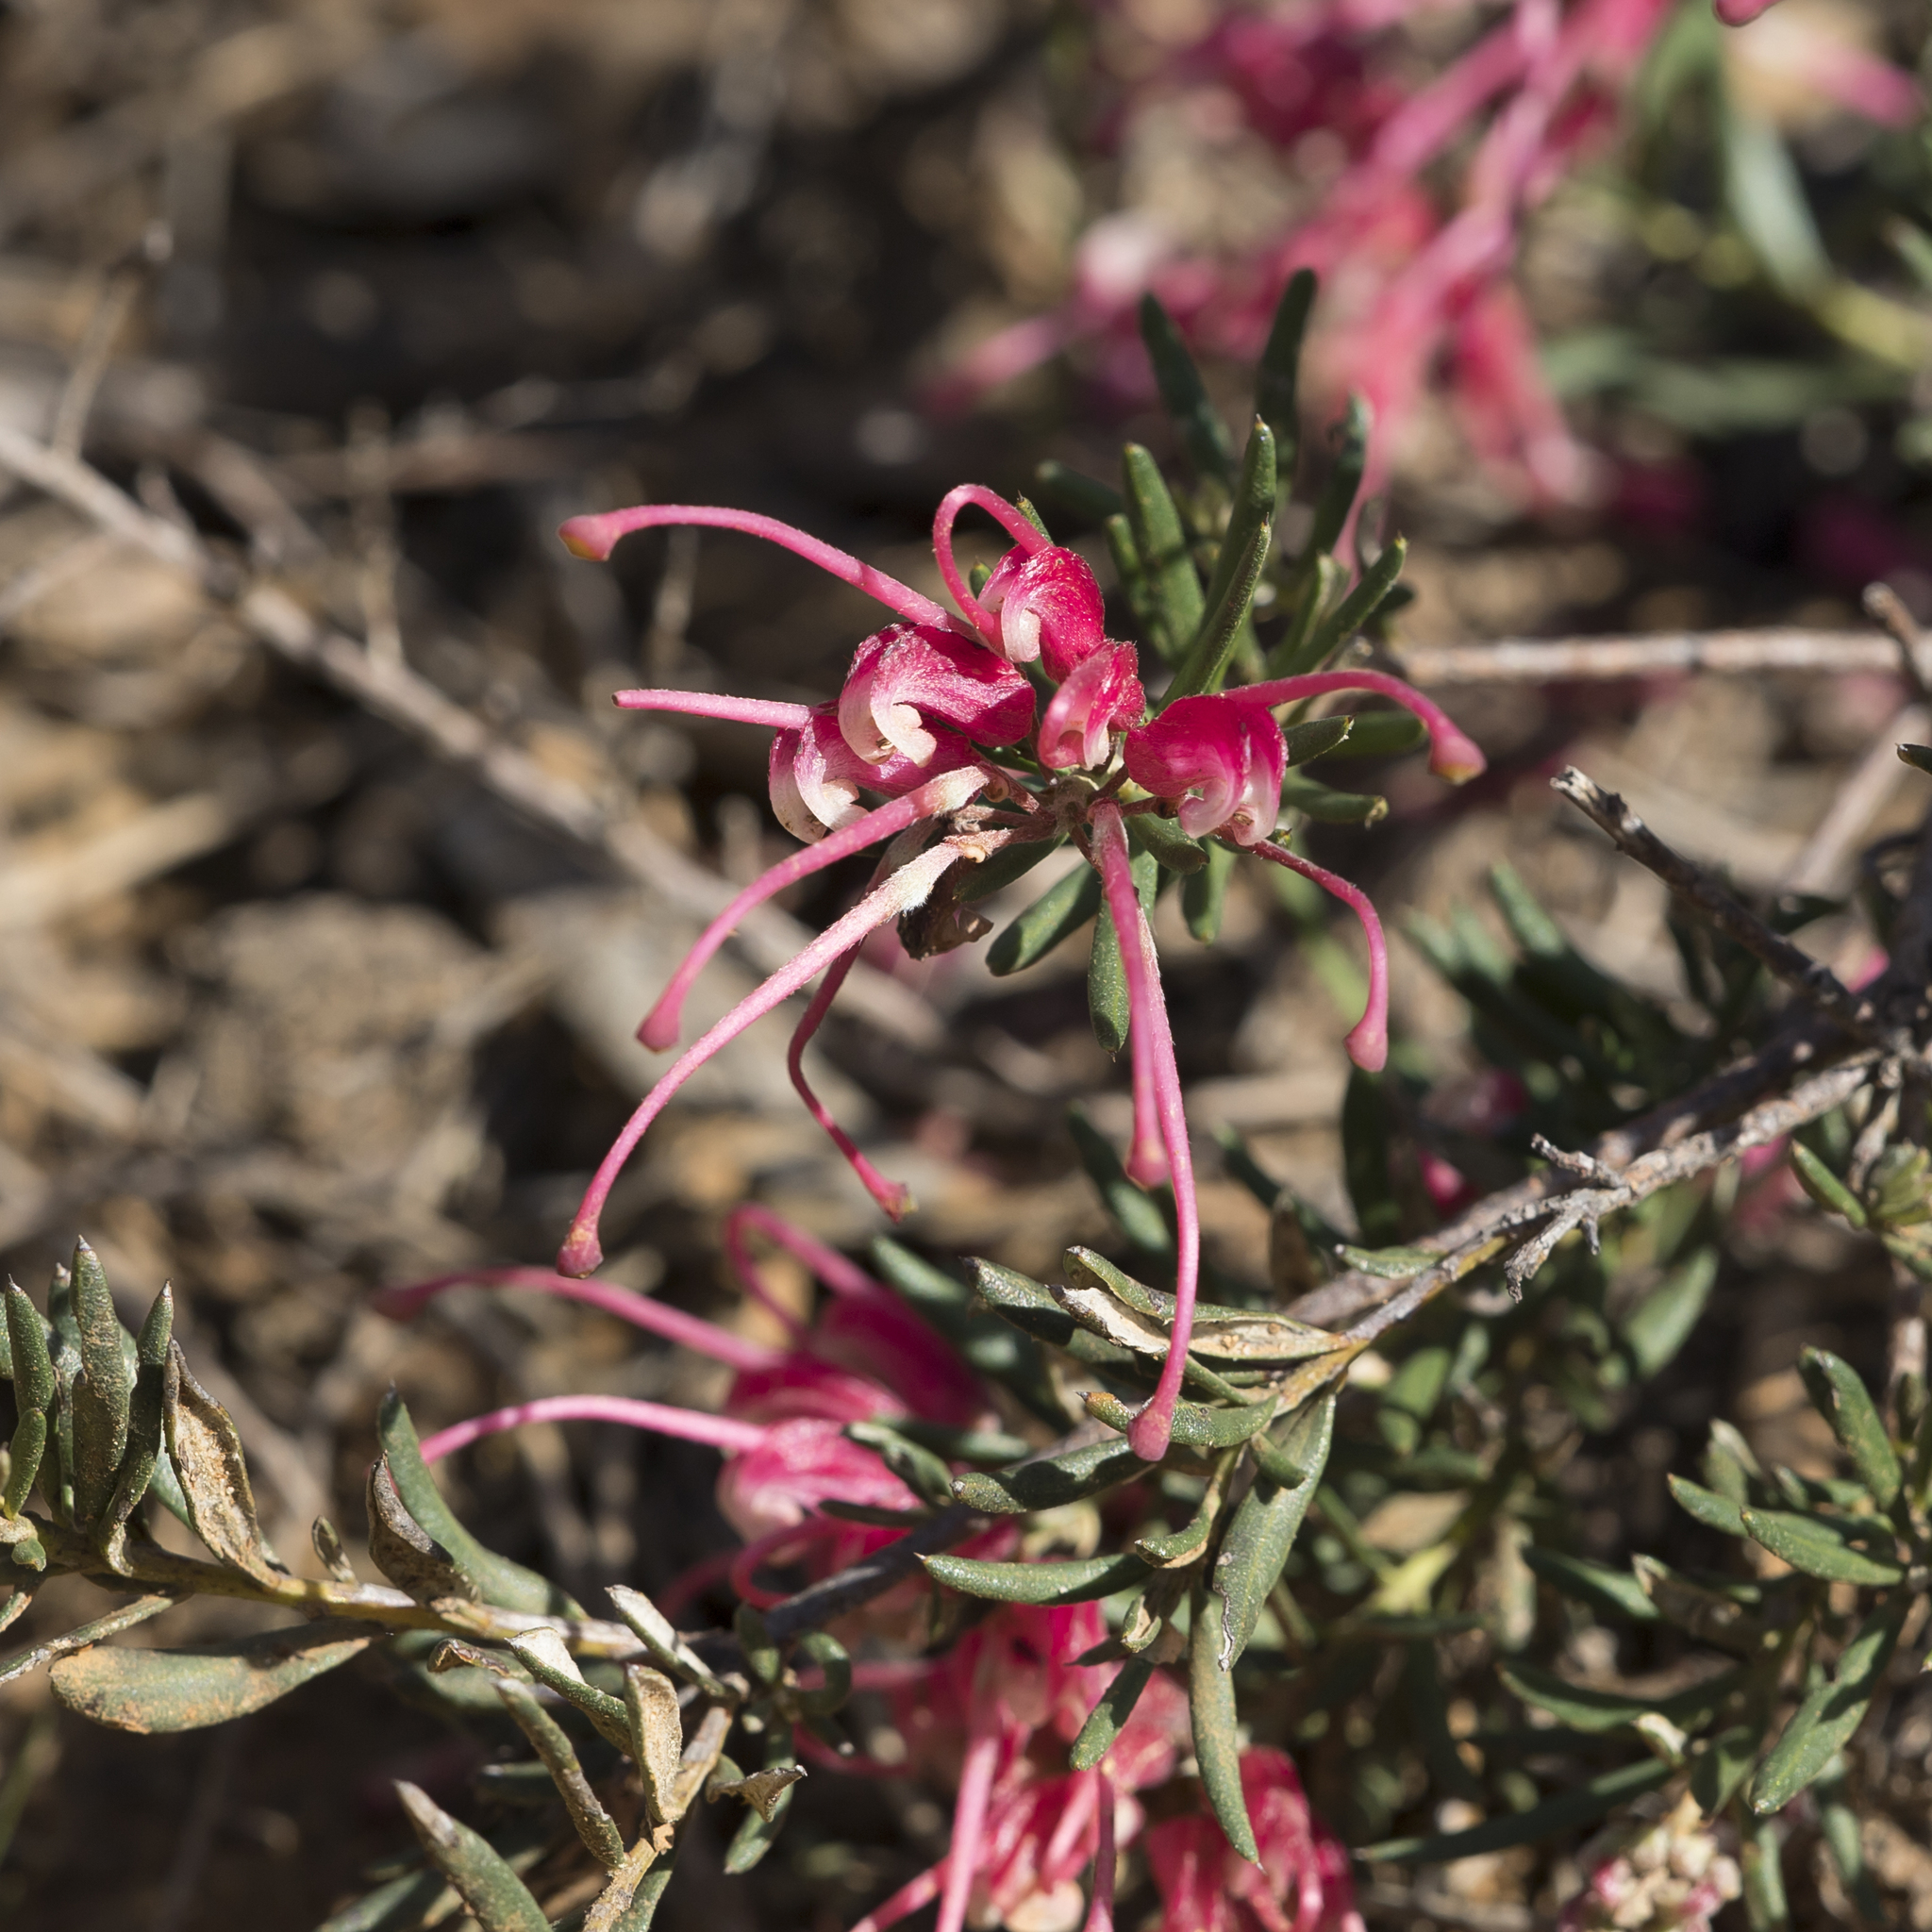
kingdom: Plantae
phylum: Tracheophyta
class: Magnoliopsida
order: Proteales
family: Proteaceae
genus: Grevillea
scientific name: Grevillea lavandulacea
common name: Lavender grevillea
